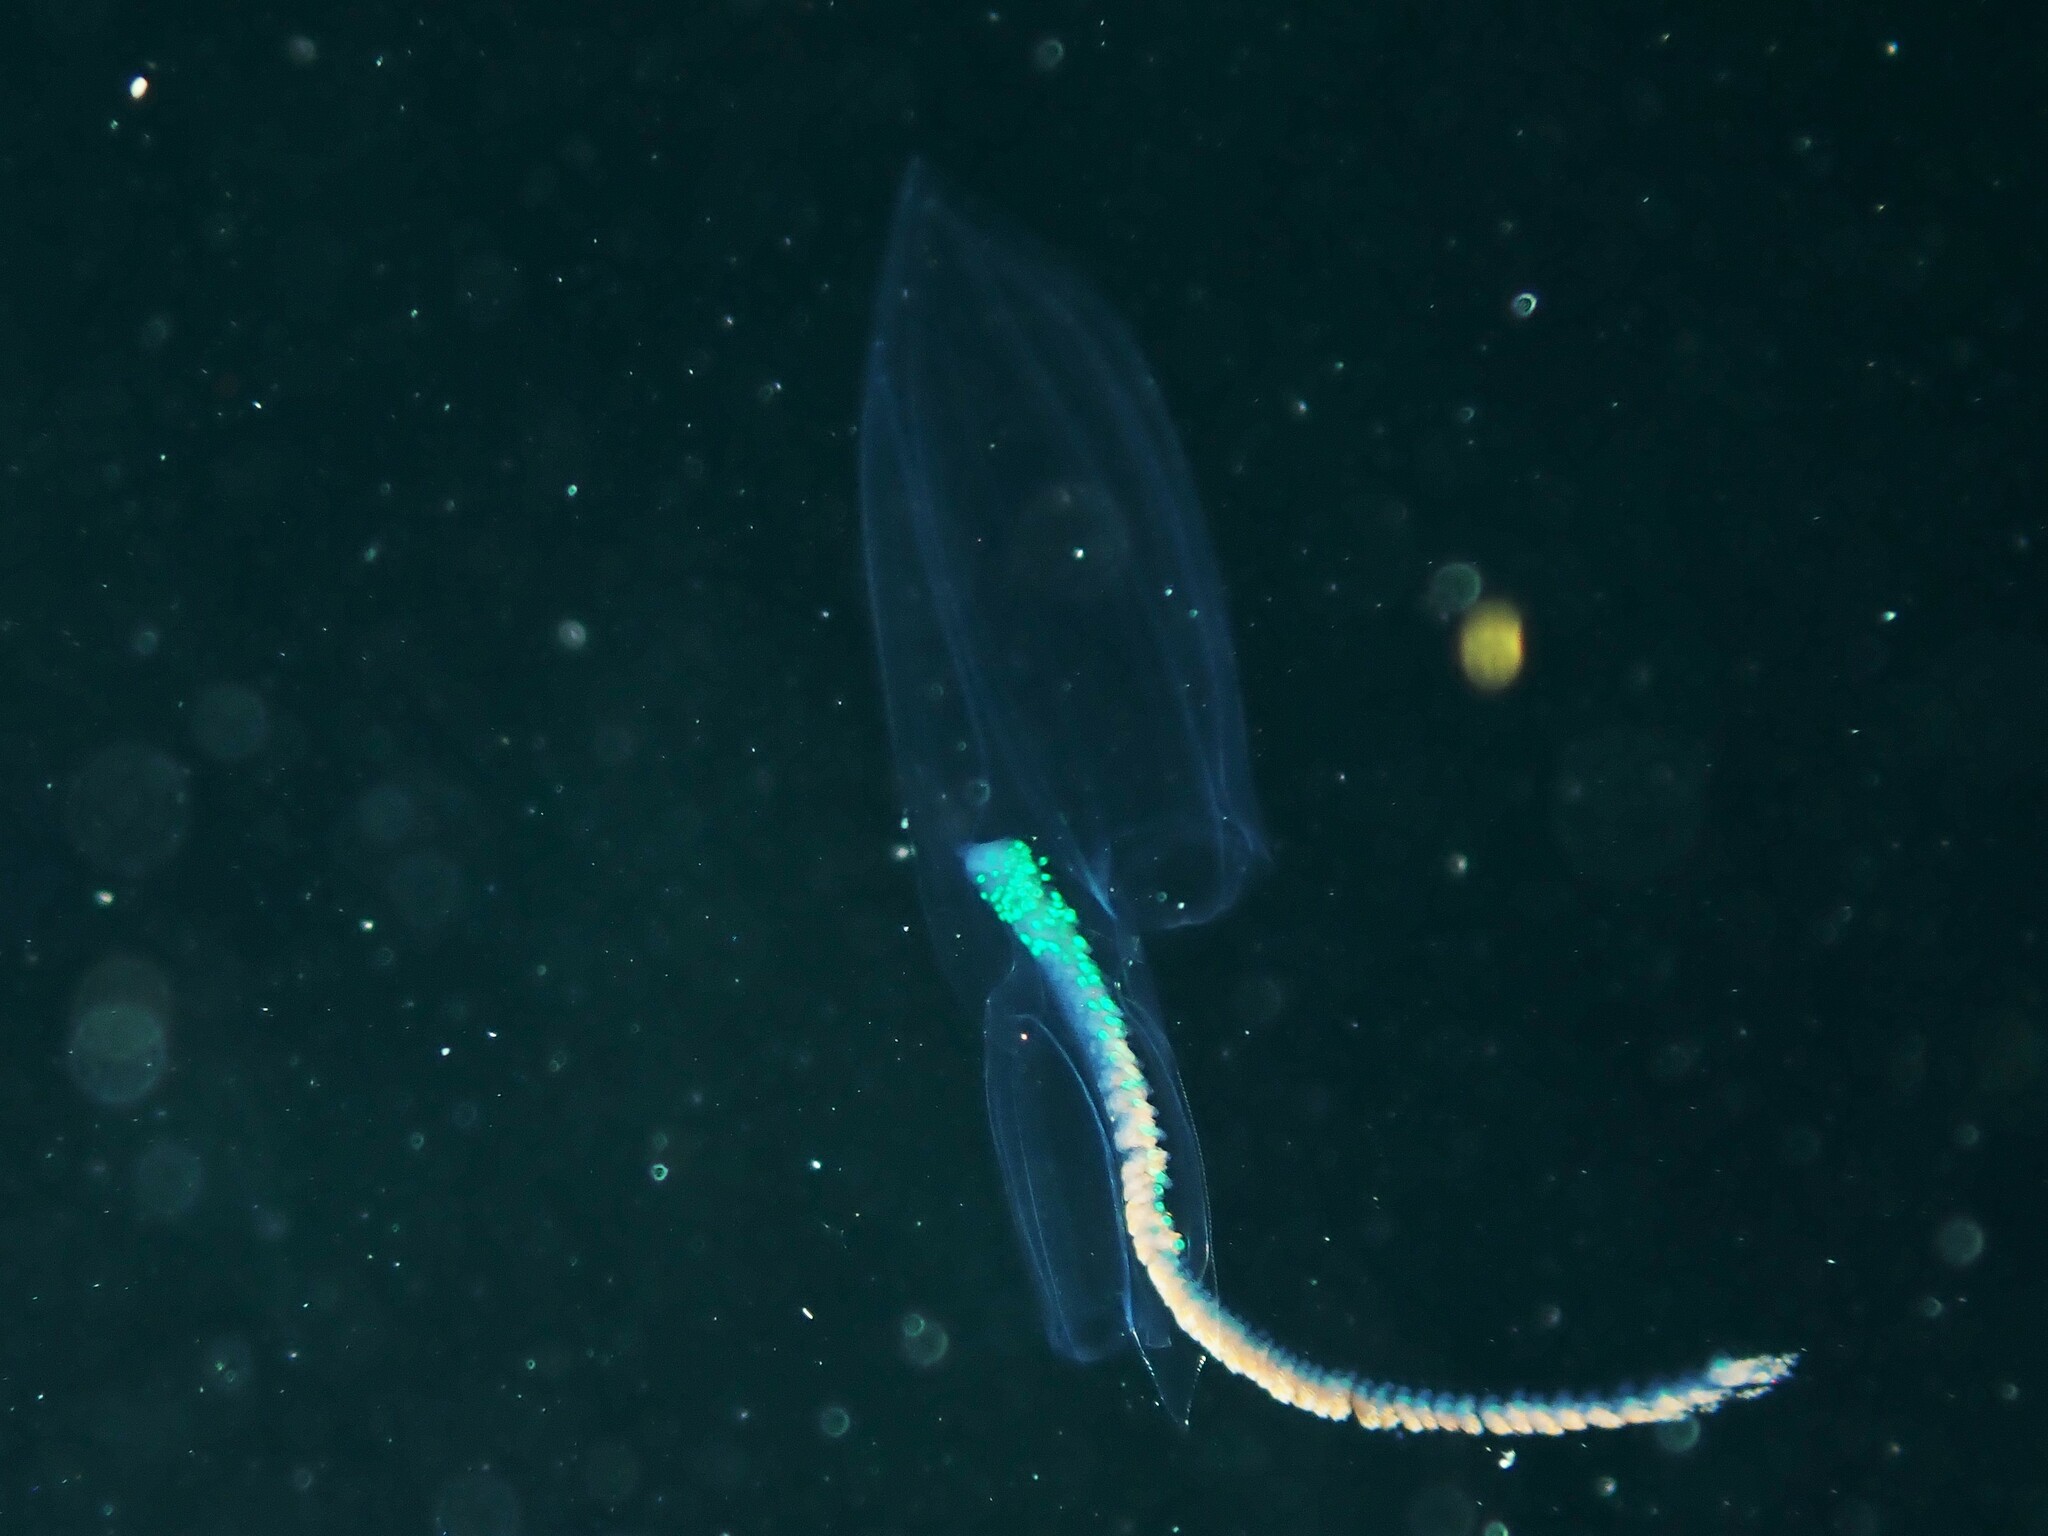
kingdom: Animalia
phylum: Cnidaria
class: Hydrozoa
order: Siphonophorae
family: Diphyidae
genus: Chelophyes
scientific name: Chelophyes appendiculata
